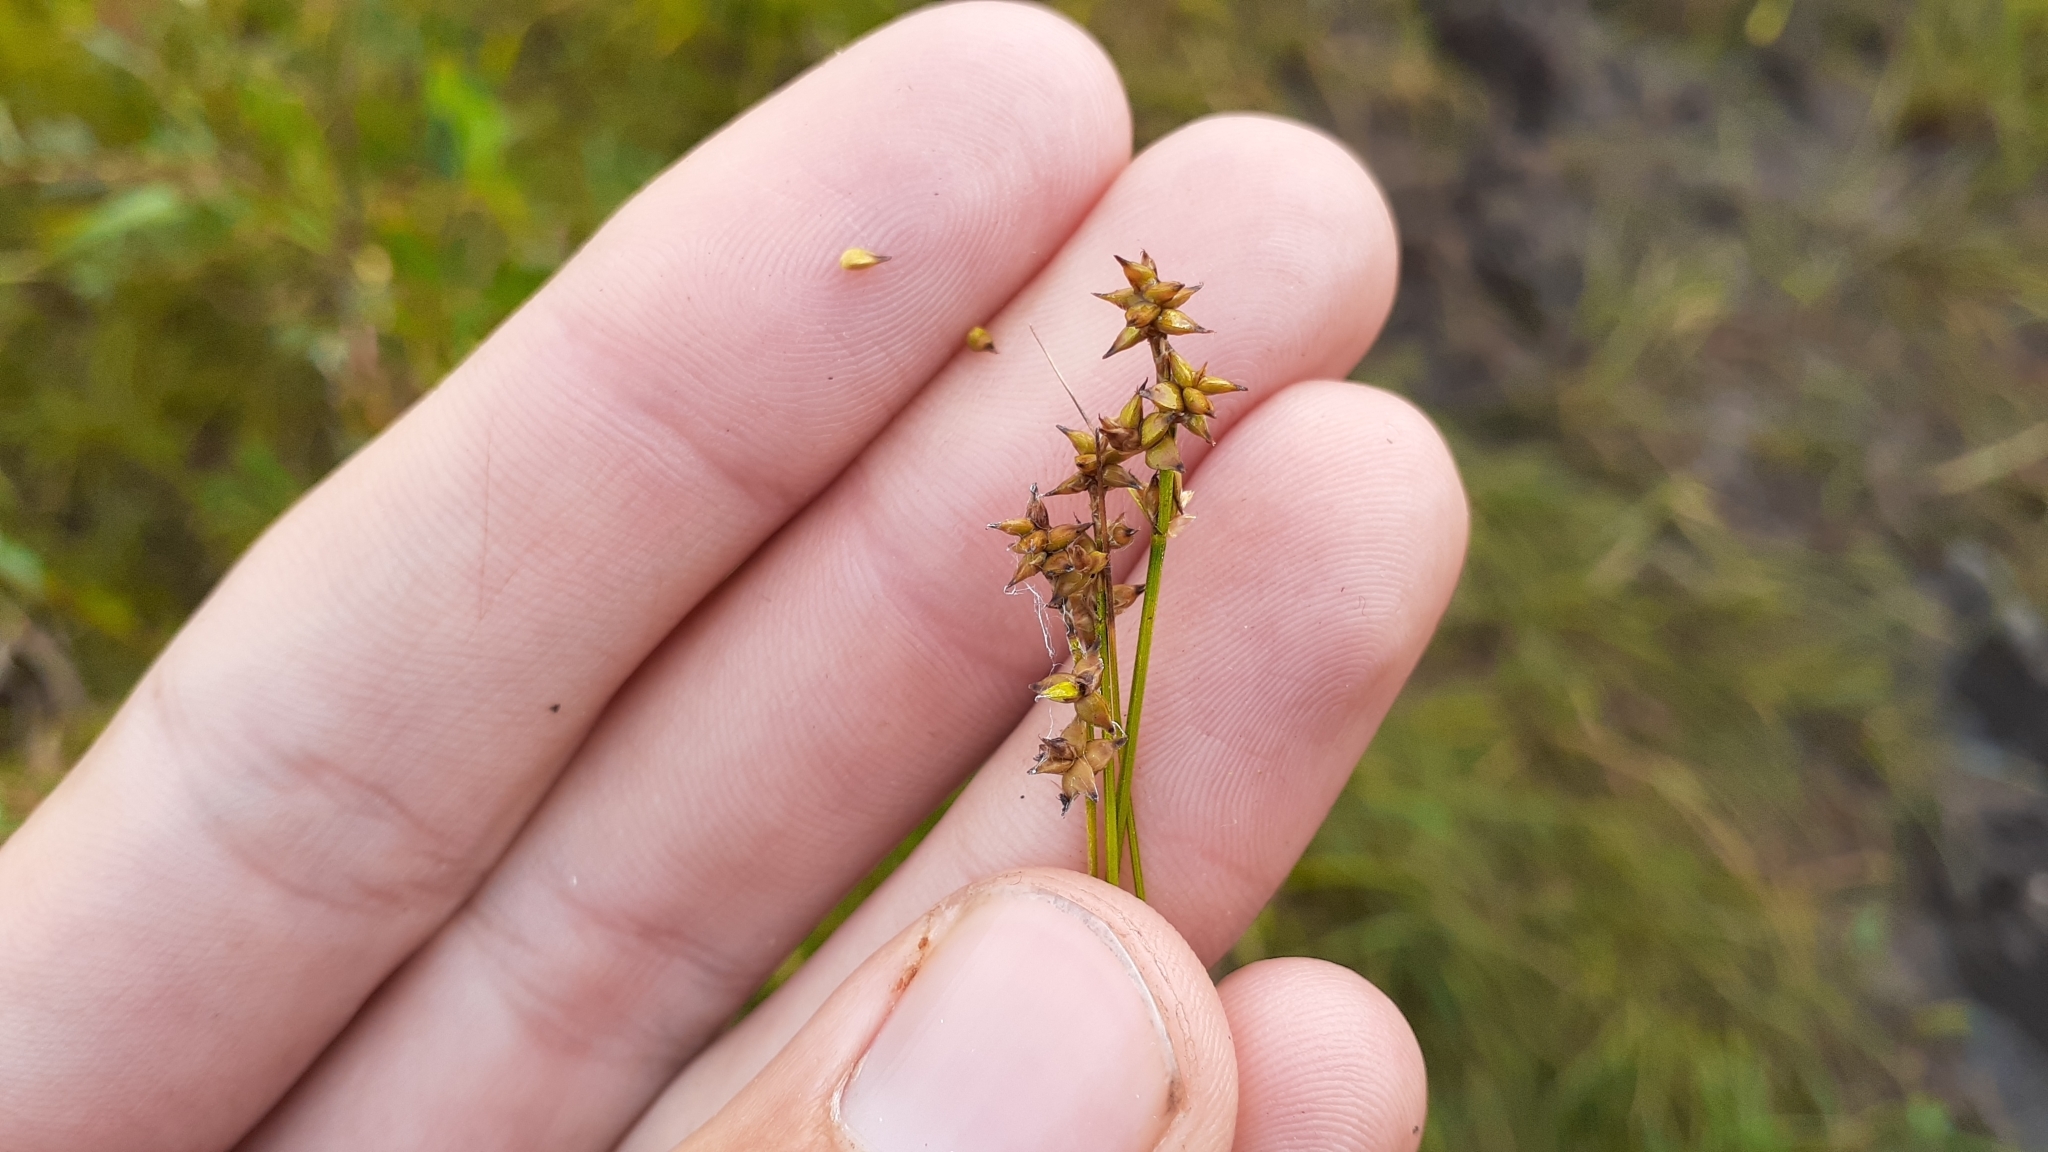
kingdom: Plantae
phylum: Tracheophyta
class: Liliopsida
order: Poales
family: Cyperaceae
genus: Carex
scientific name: Carex interior
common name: Inland sedge
